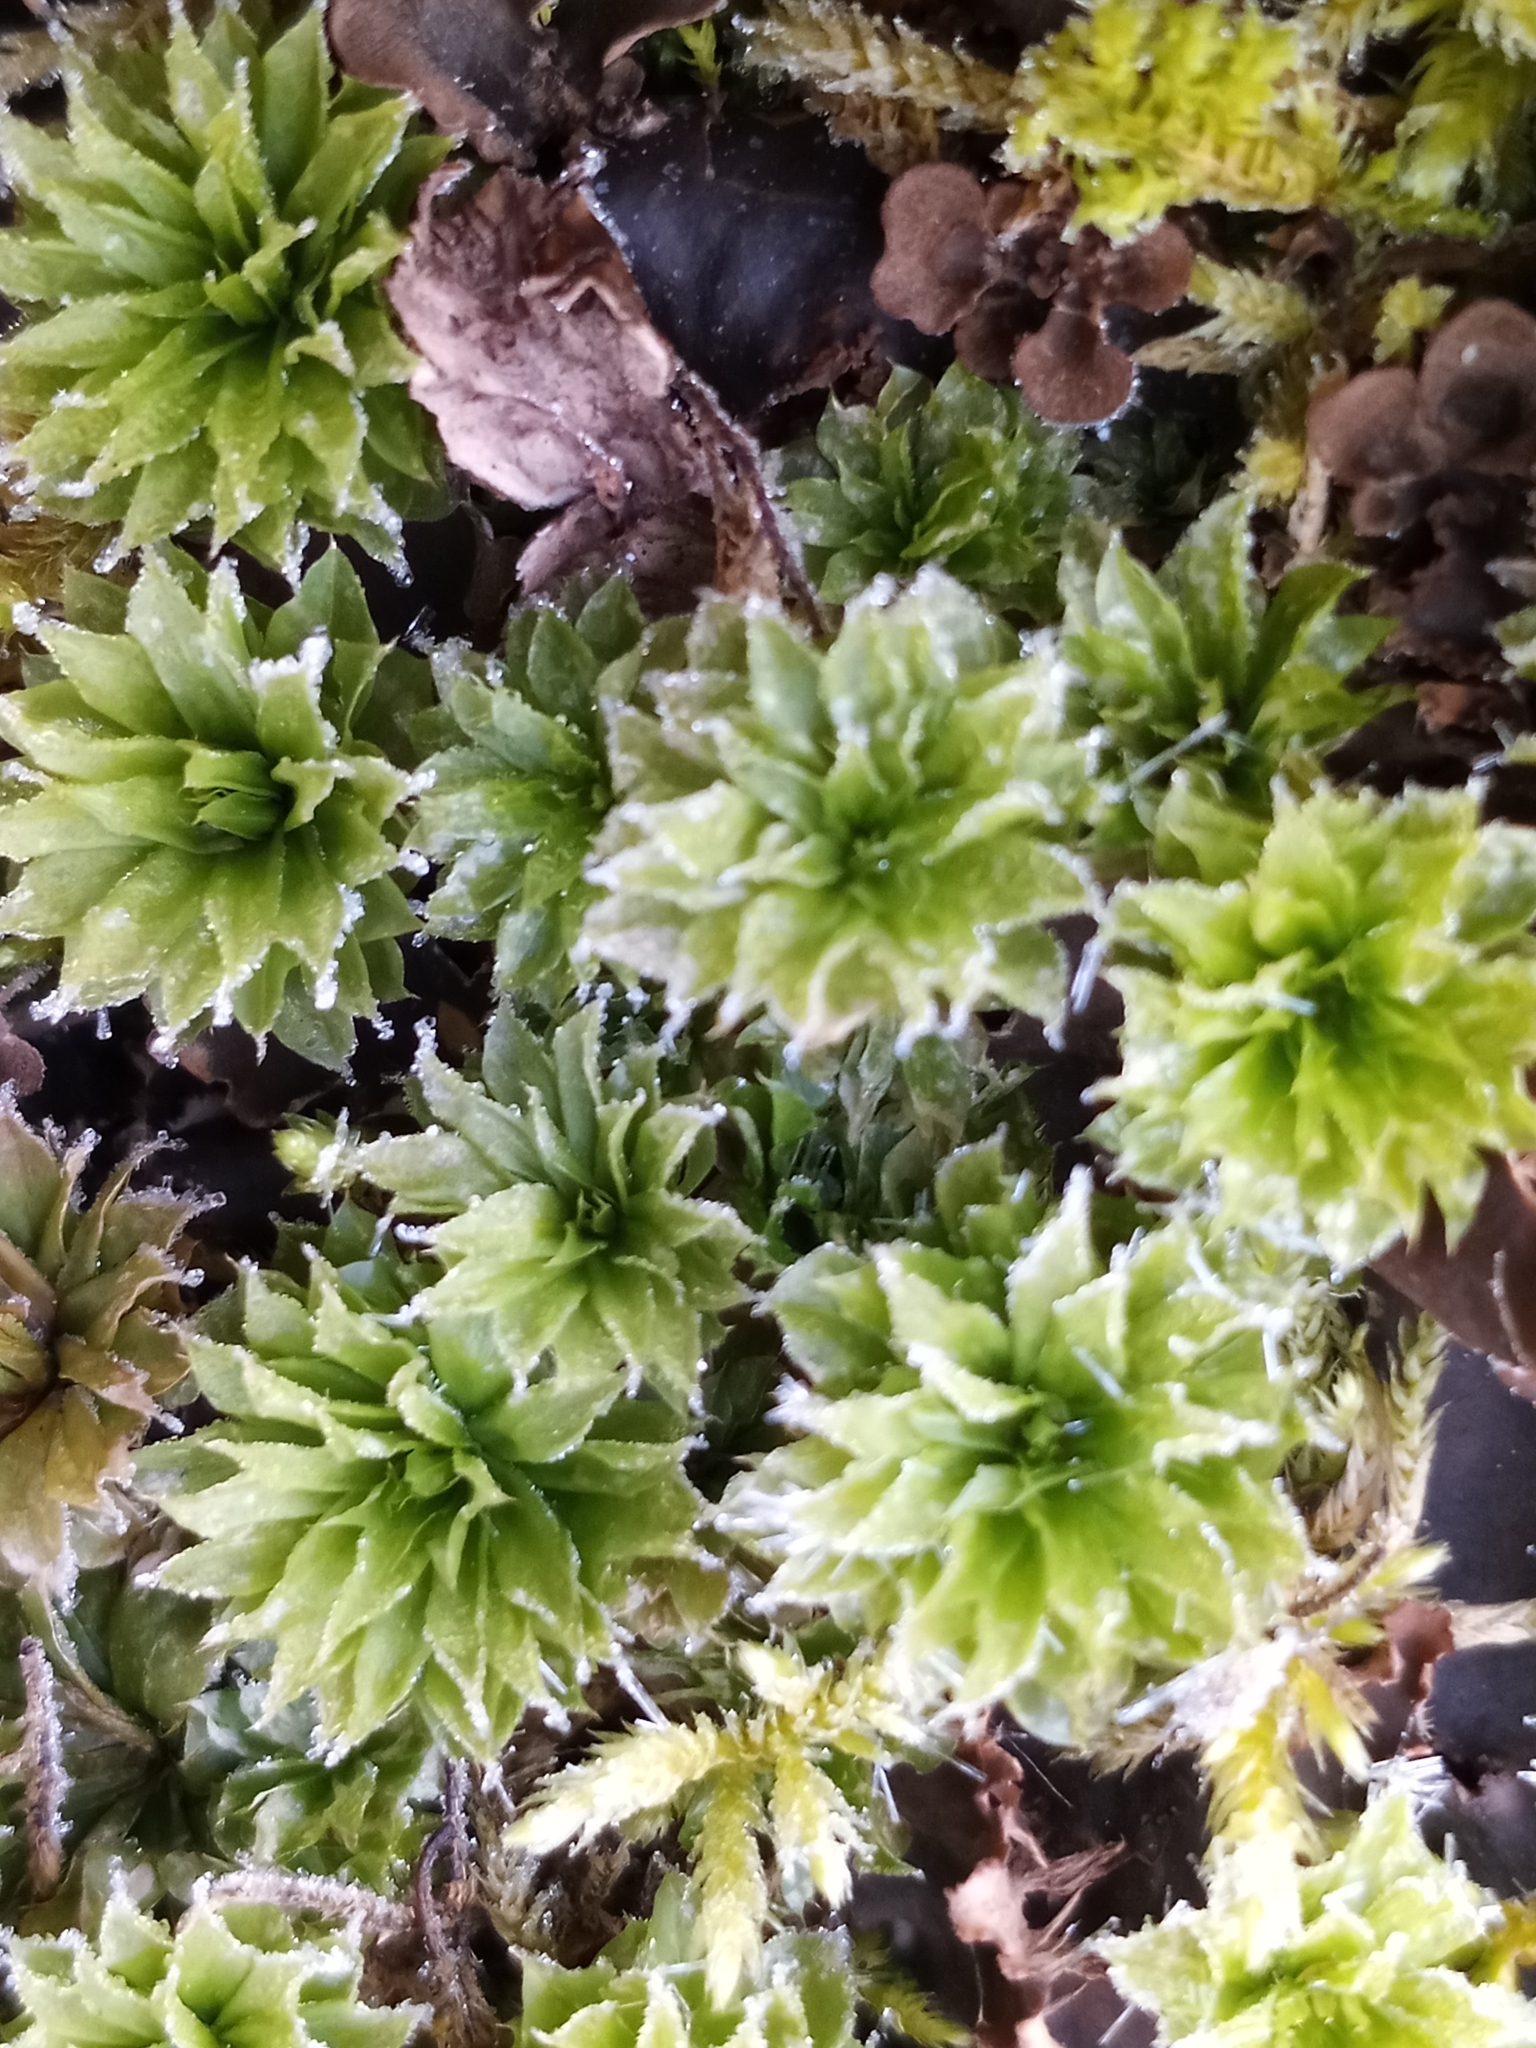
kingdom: Plantae
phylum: Bryophyta
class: Bryopsida
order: Bryales
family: Bryaceae
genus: Rhodobryum
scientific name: Rhodobryum ontariense
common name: Ontario rhodobryum moss
